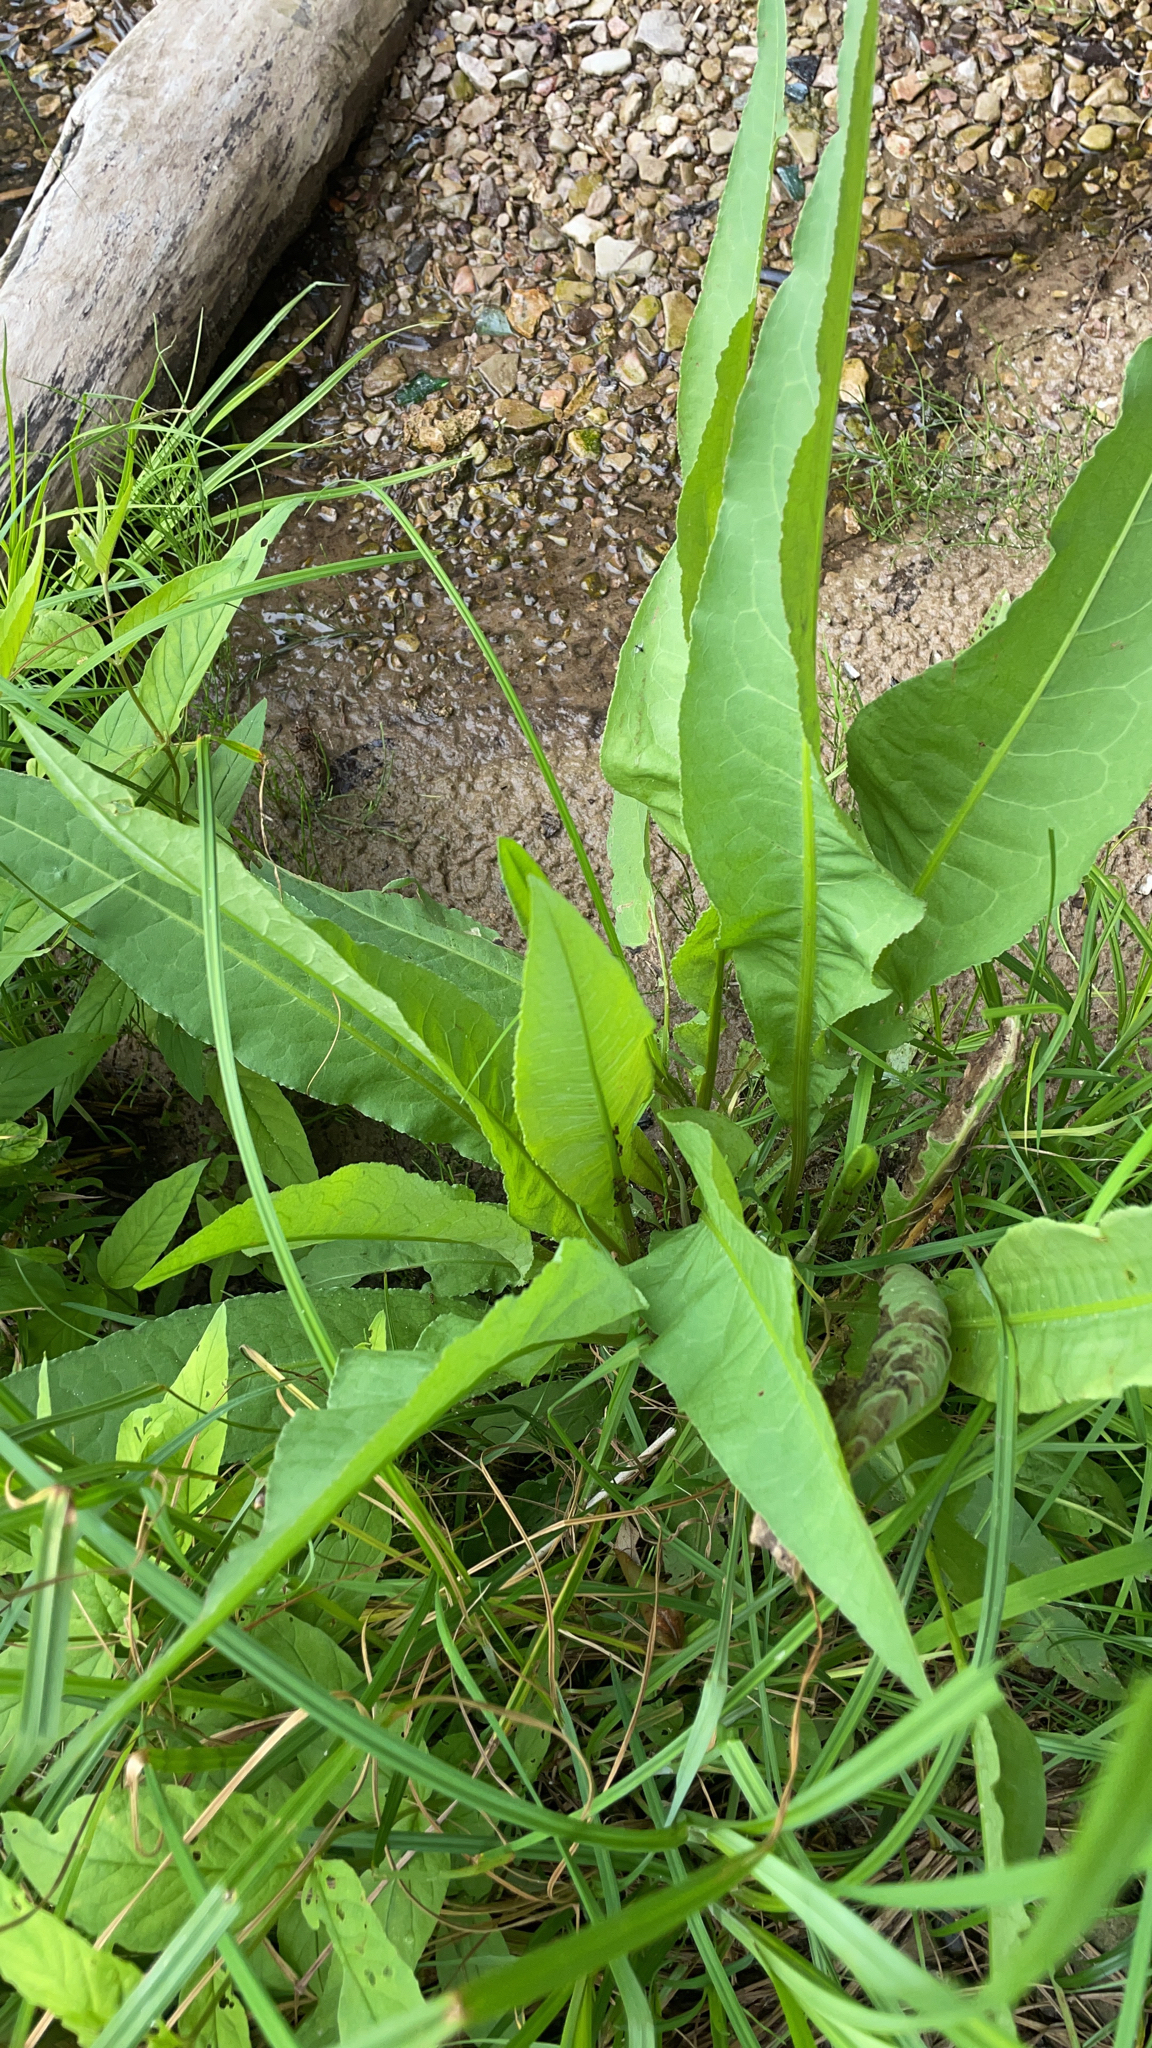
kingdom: Plantae
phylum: Tracheophyta
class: Magnoliopsida
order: Caryophyllales
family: Polygonaceae
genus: Rumex
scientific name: Rumex hydrolapathum
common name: Water dock
